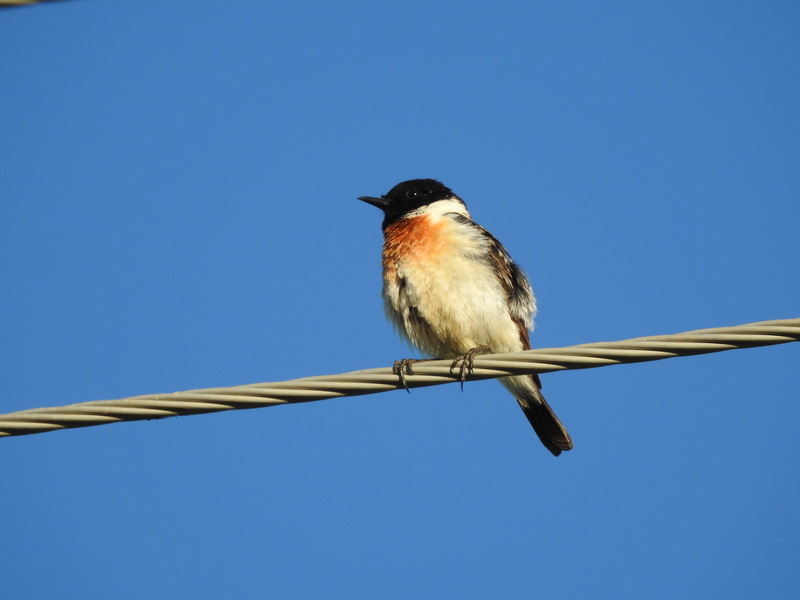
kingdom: Animalia
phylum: Chordata
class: Aves
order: Passeriformes
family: Muscicapidae
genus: Saxicola
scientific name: Saxicola maurus
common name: Siberian stonechat
